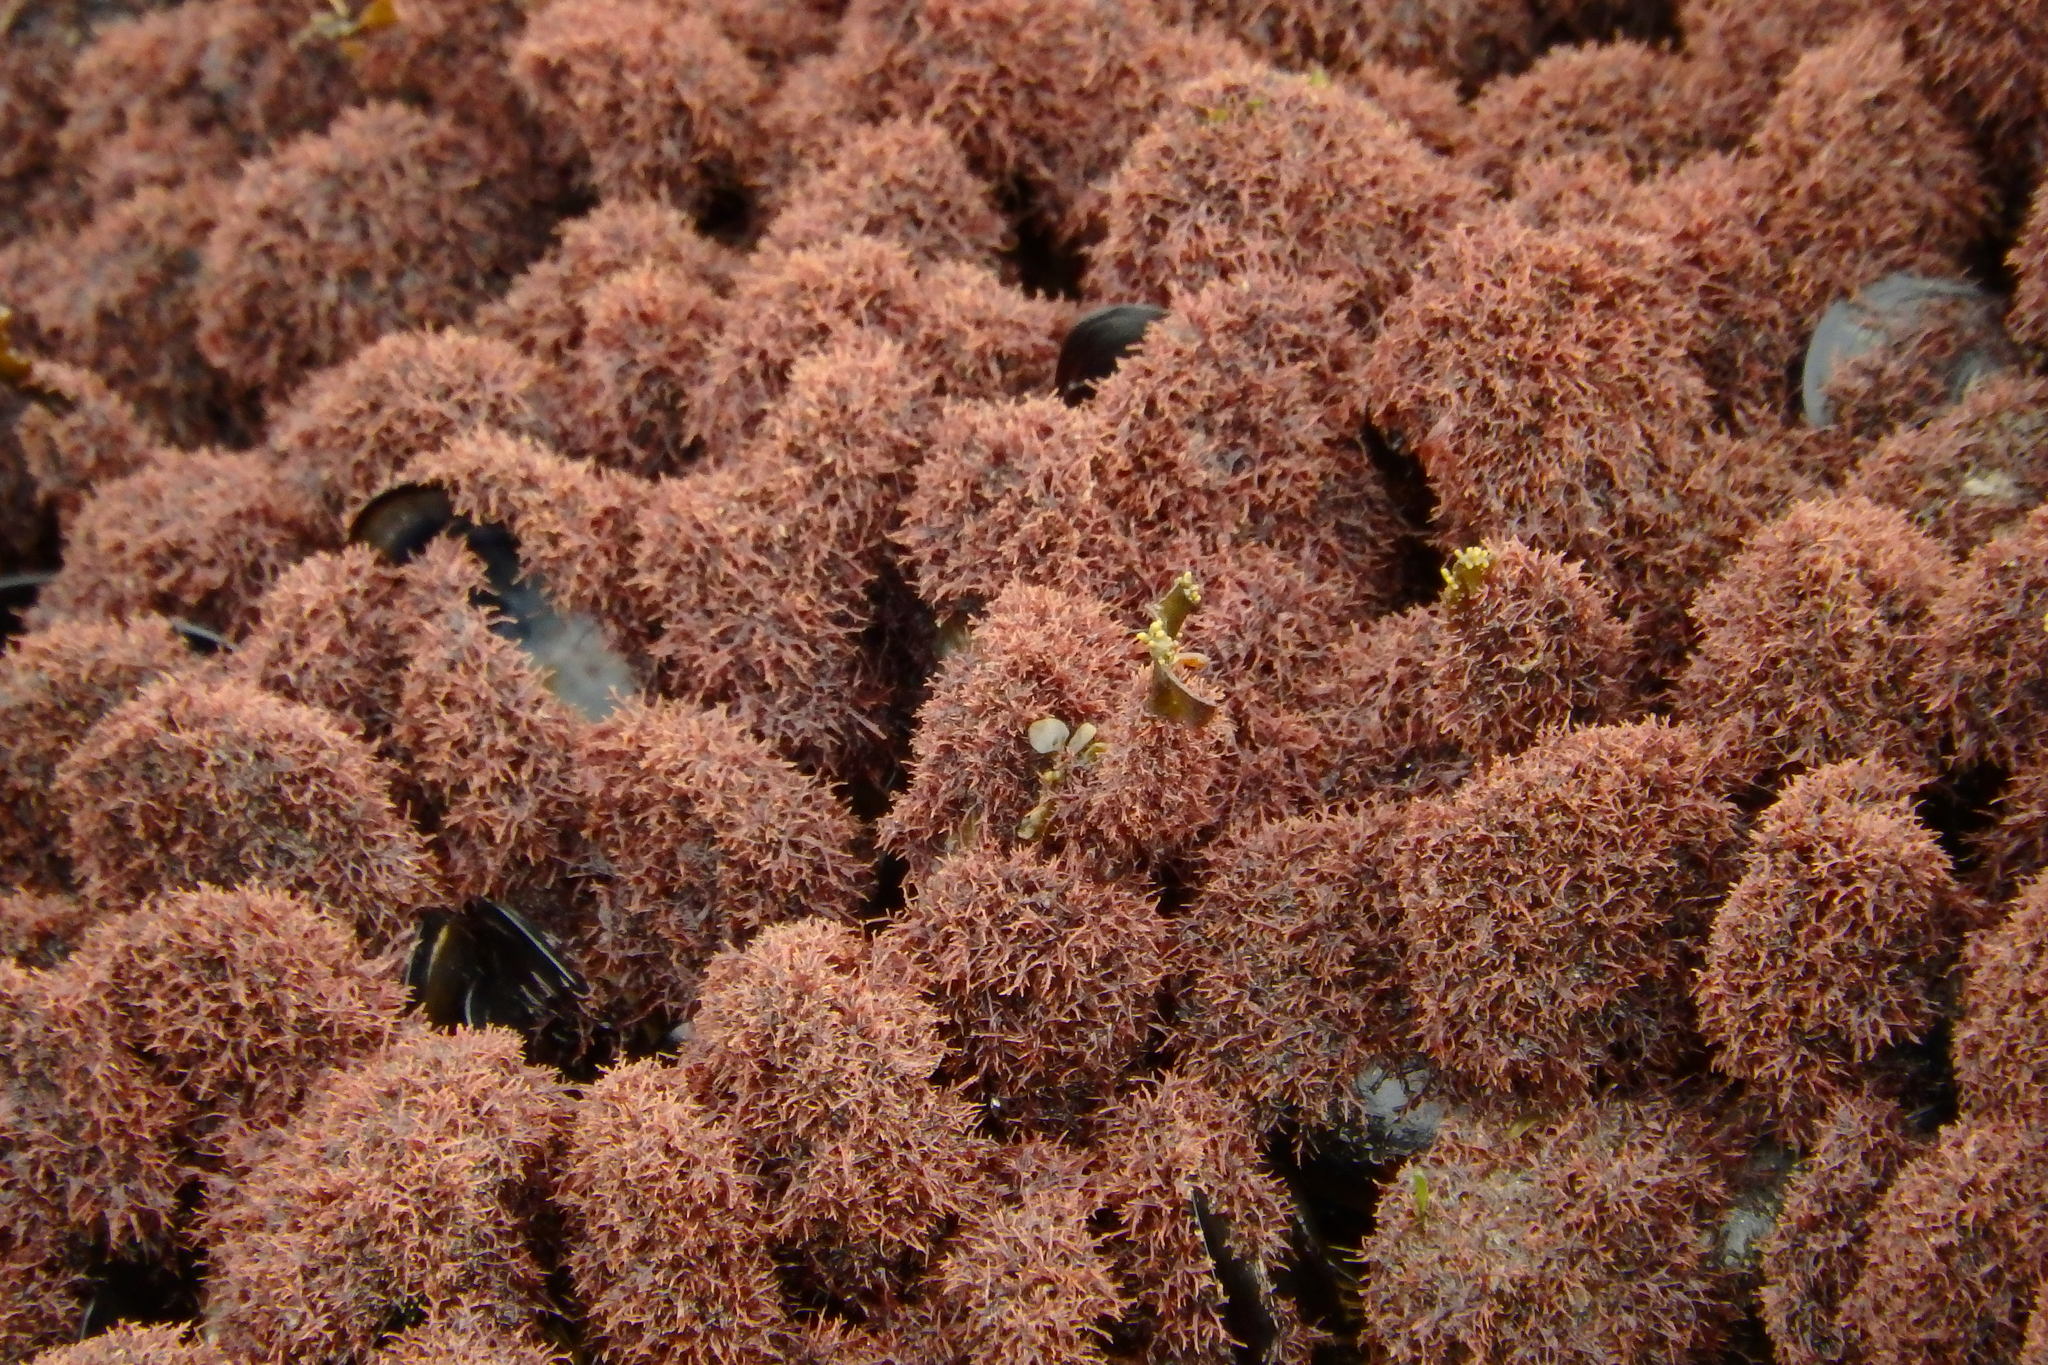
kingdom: Plantae
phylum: Rhodophyta
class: Florideophyceae
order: Gigartinales
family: Caulacanthaceae
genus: Caulacanthus
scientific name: Caulacanthus ustulatus
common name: Red algae
